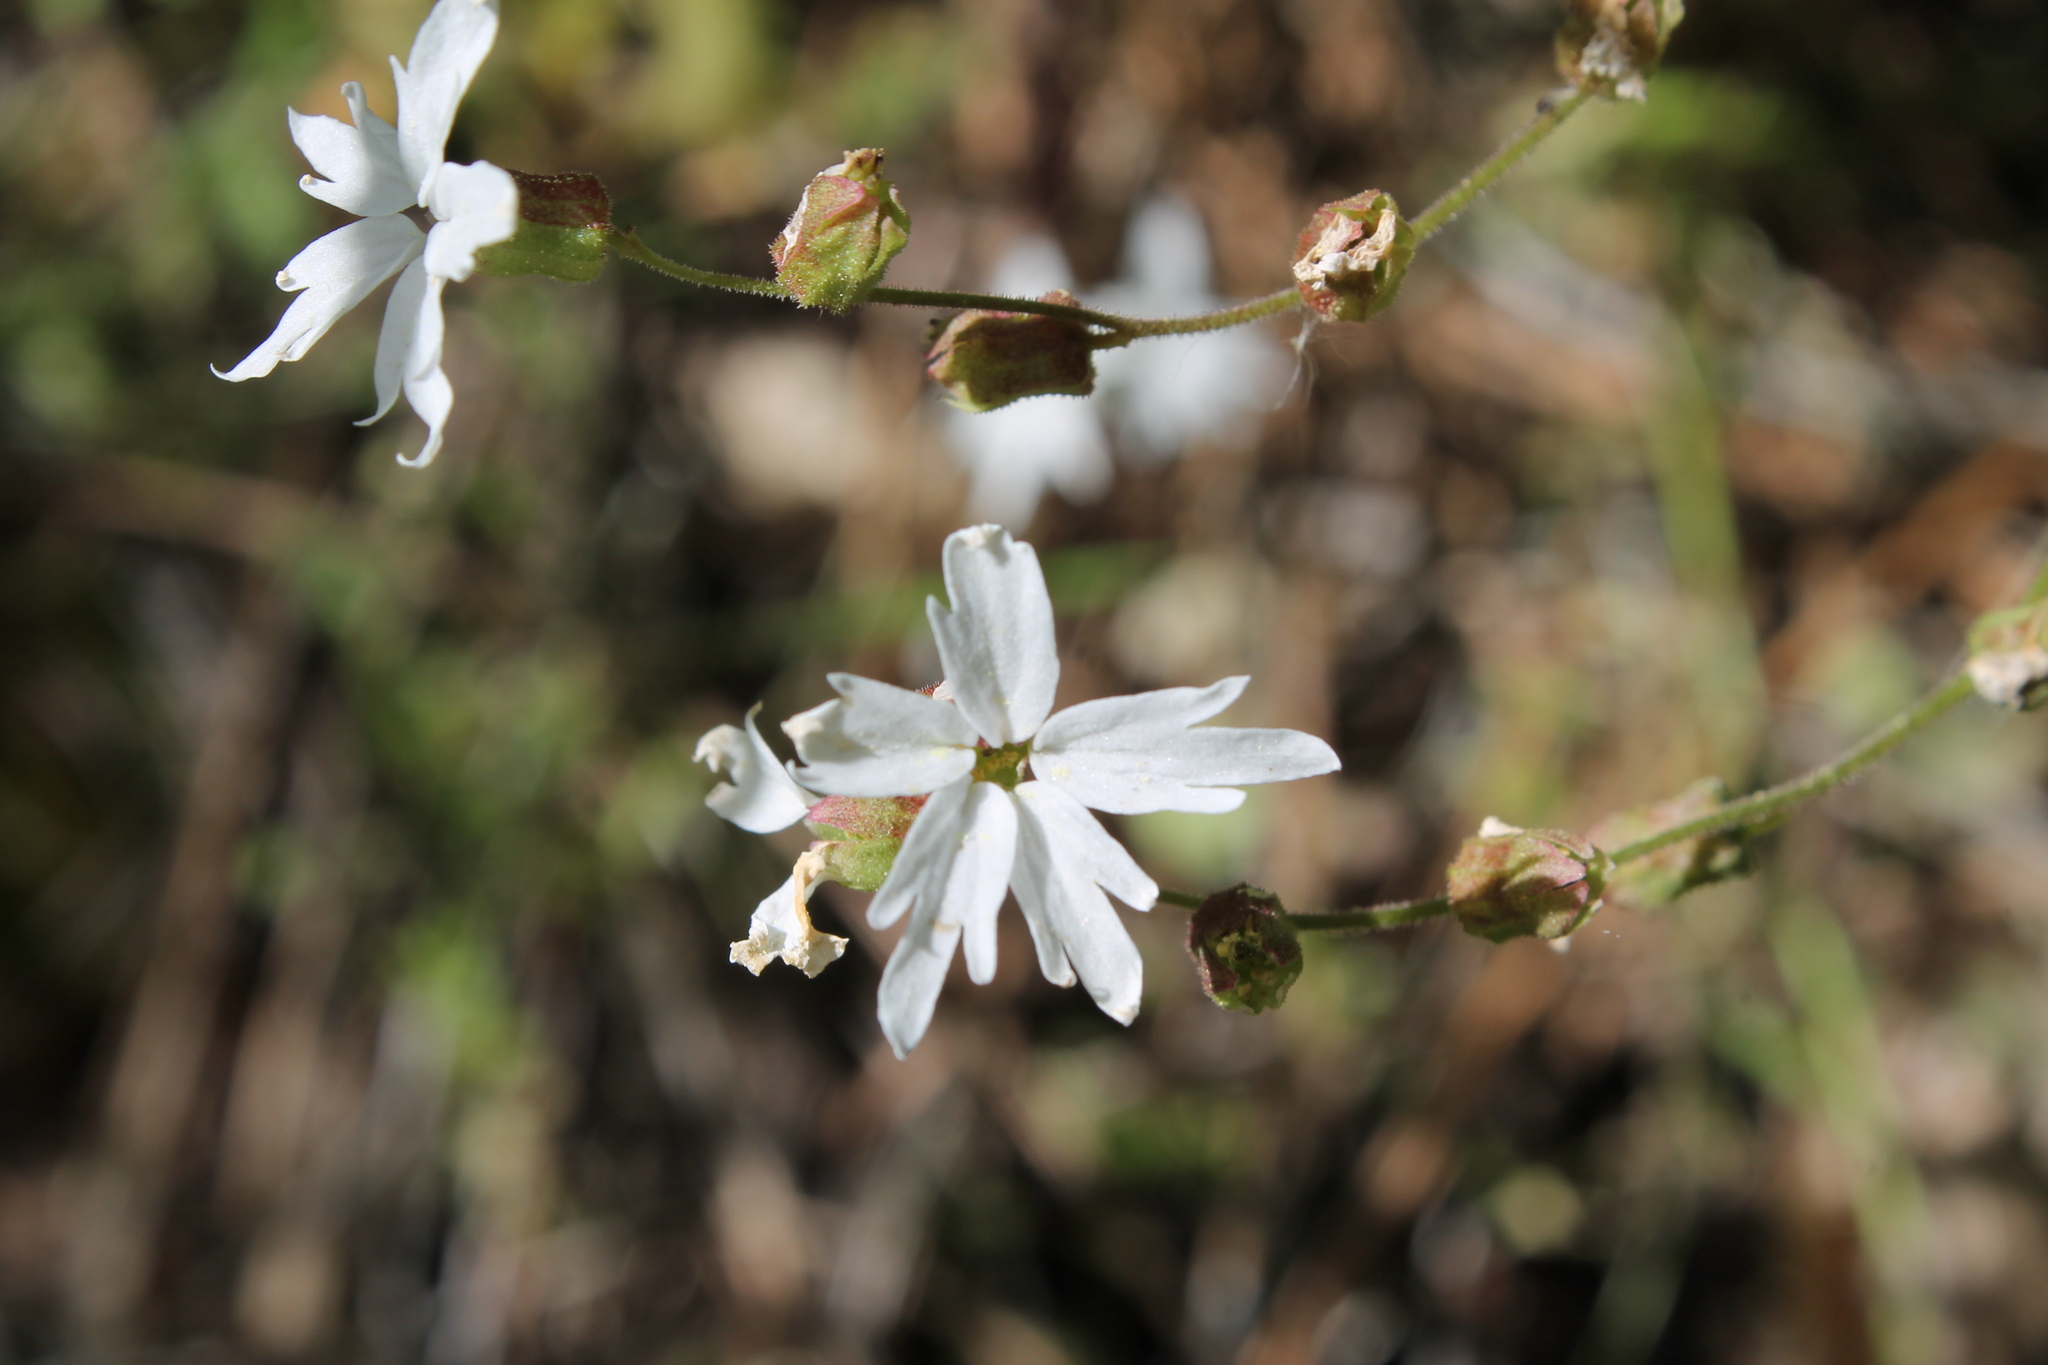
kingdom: Plantae
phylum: Tracheophyta
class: Magnoliopsida
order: Saxifragales
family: Saxifragaceae
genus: Lithophragma
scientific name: Lithophragma heterophyllum
